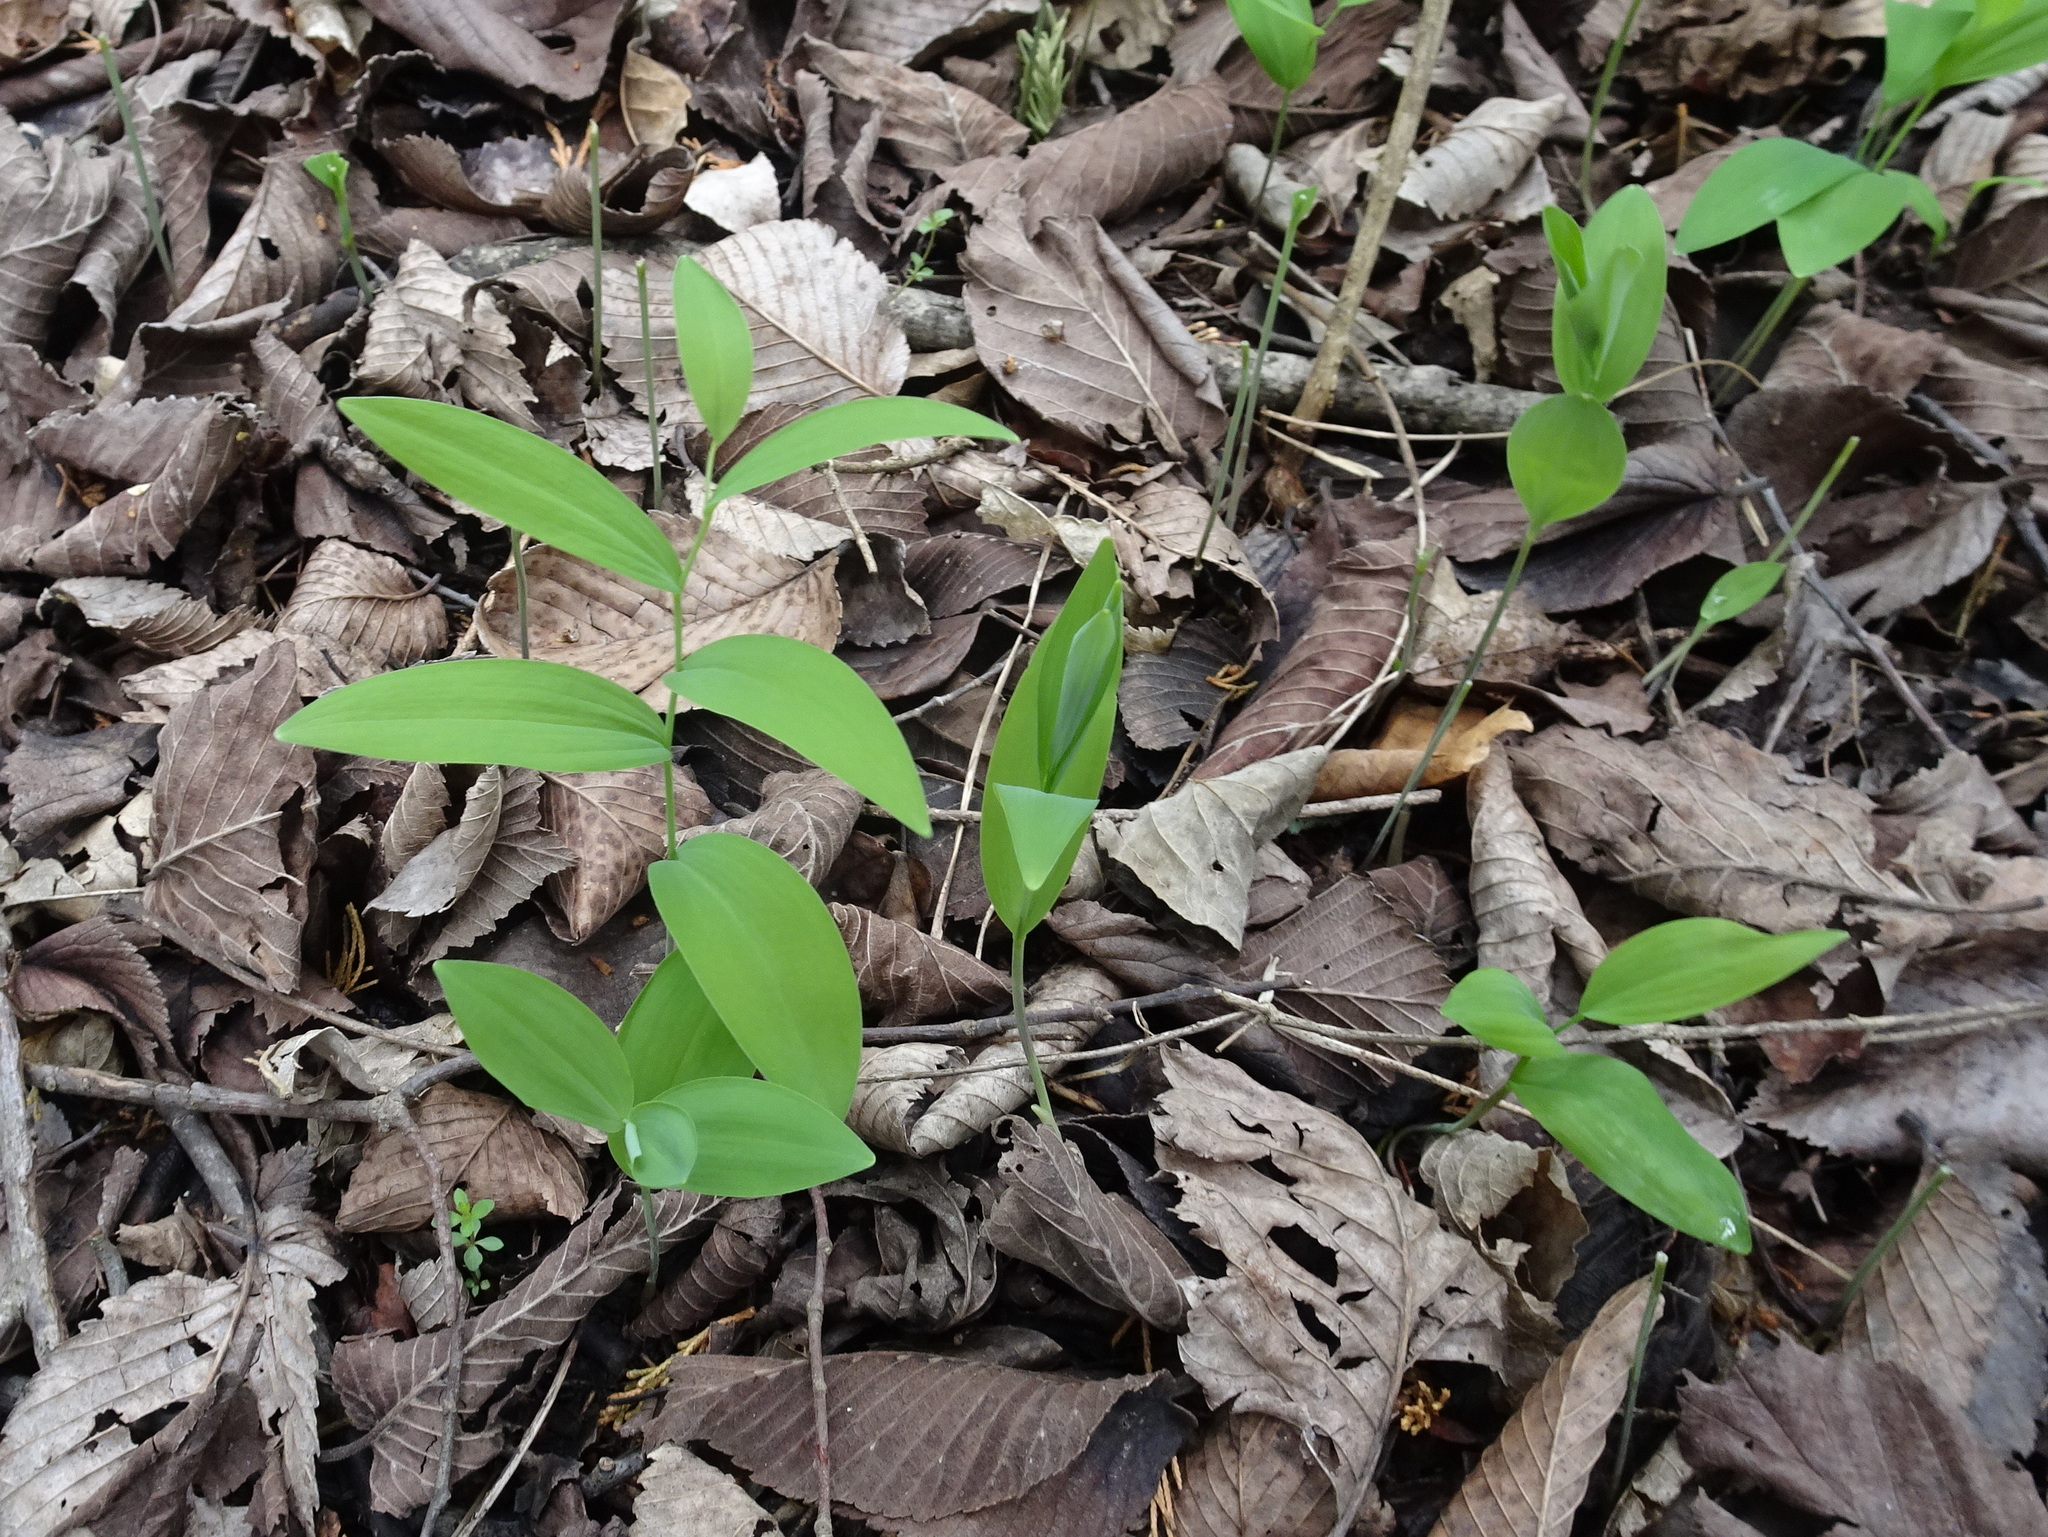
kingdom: Plantae
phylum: Tracheophyta
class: Liliopsida
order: Asparagales
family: Asparagaceae
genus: Polygonatum
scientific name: Polygonatum biflorum
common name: American solomon's-seal
